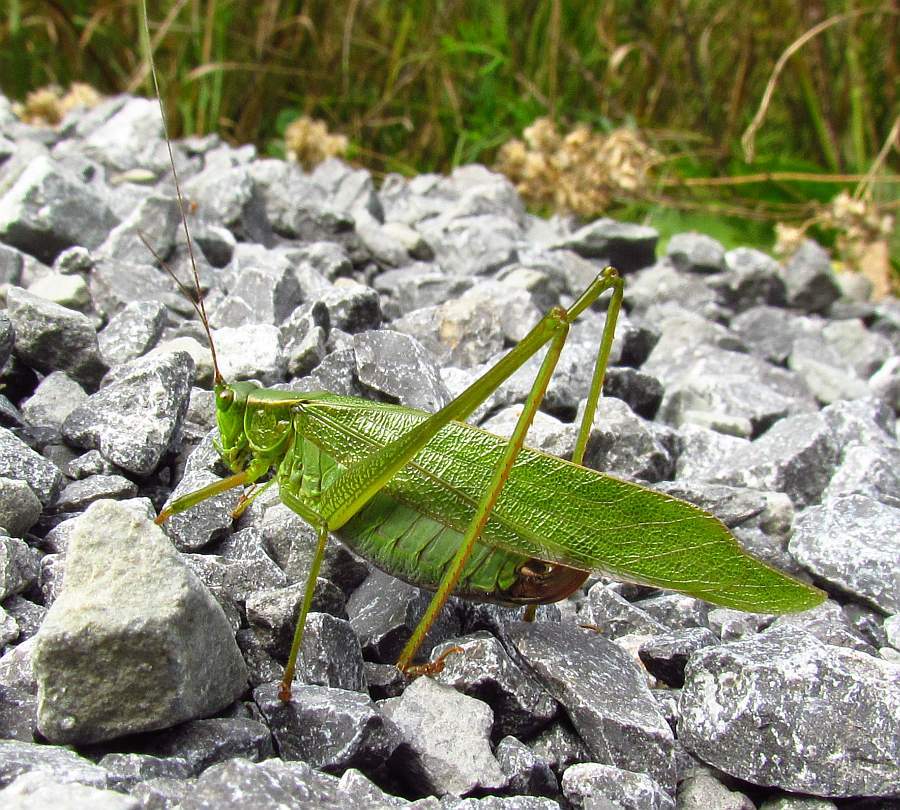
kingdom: Animalia
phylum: Arthropoda
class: Insecta
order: Orthoptera
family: Tettigoniidae
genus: Scudderia
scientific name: Scudderia furcata
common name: Fork-tailed bush katydid
